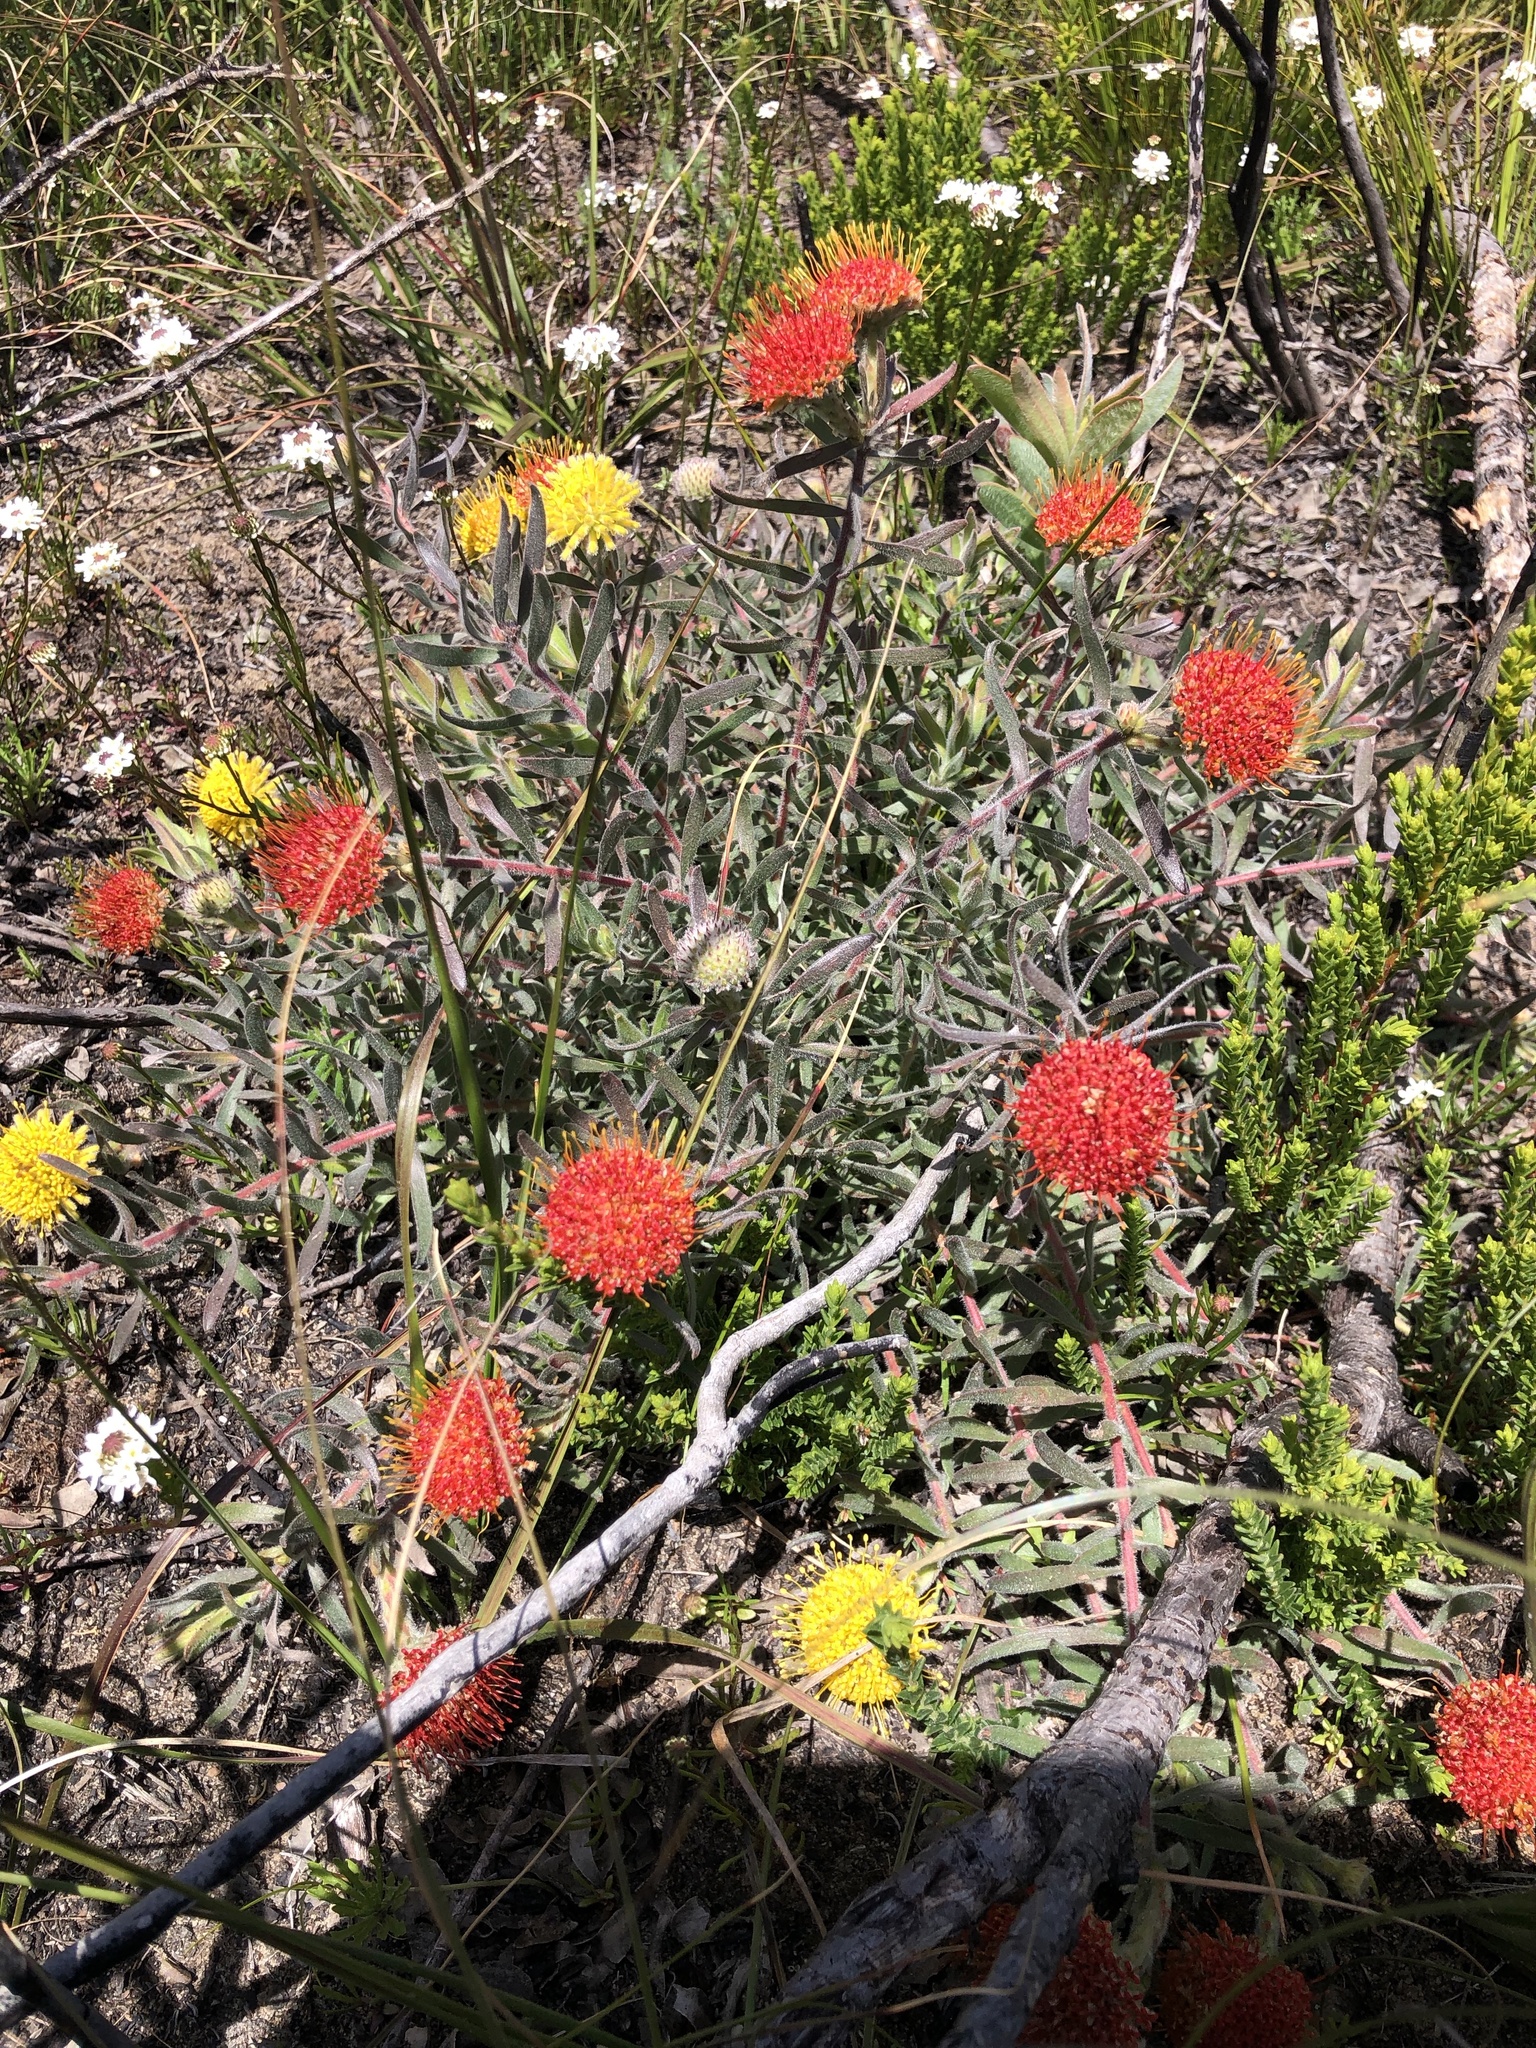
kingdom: Plantae
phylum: Tracheophyta
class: Magnoliopsida
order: Proteales
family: Proteaceae
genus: Leucospermum
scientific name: Leucospermum prostratum
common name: Yellow-trailing pincushion
